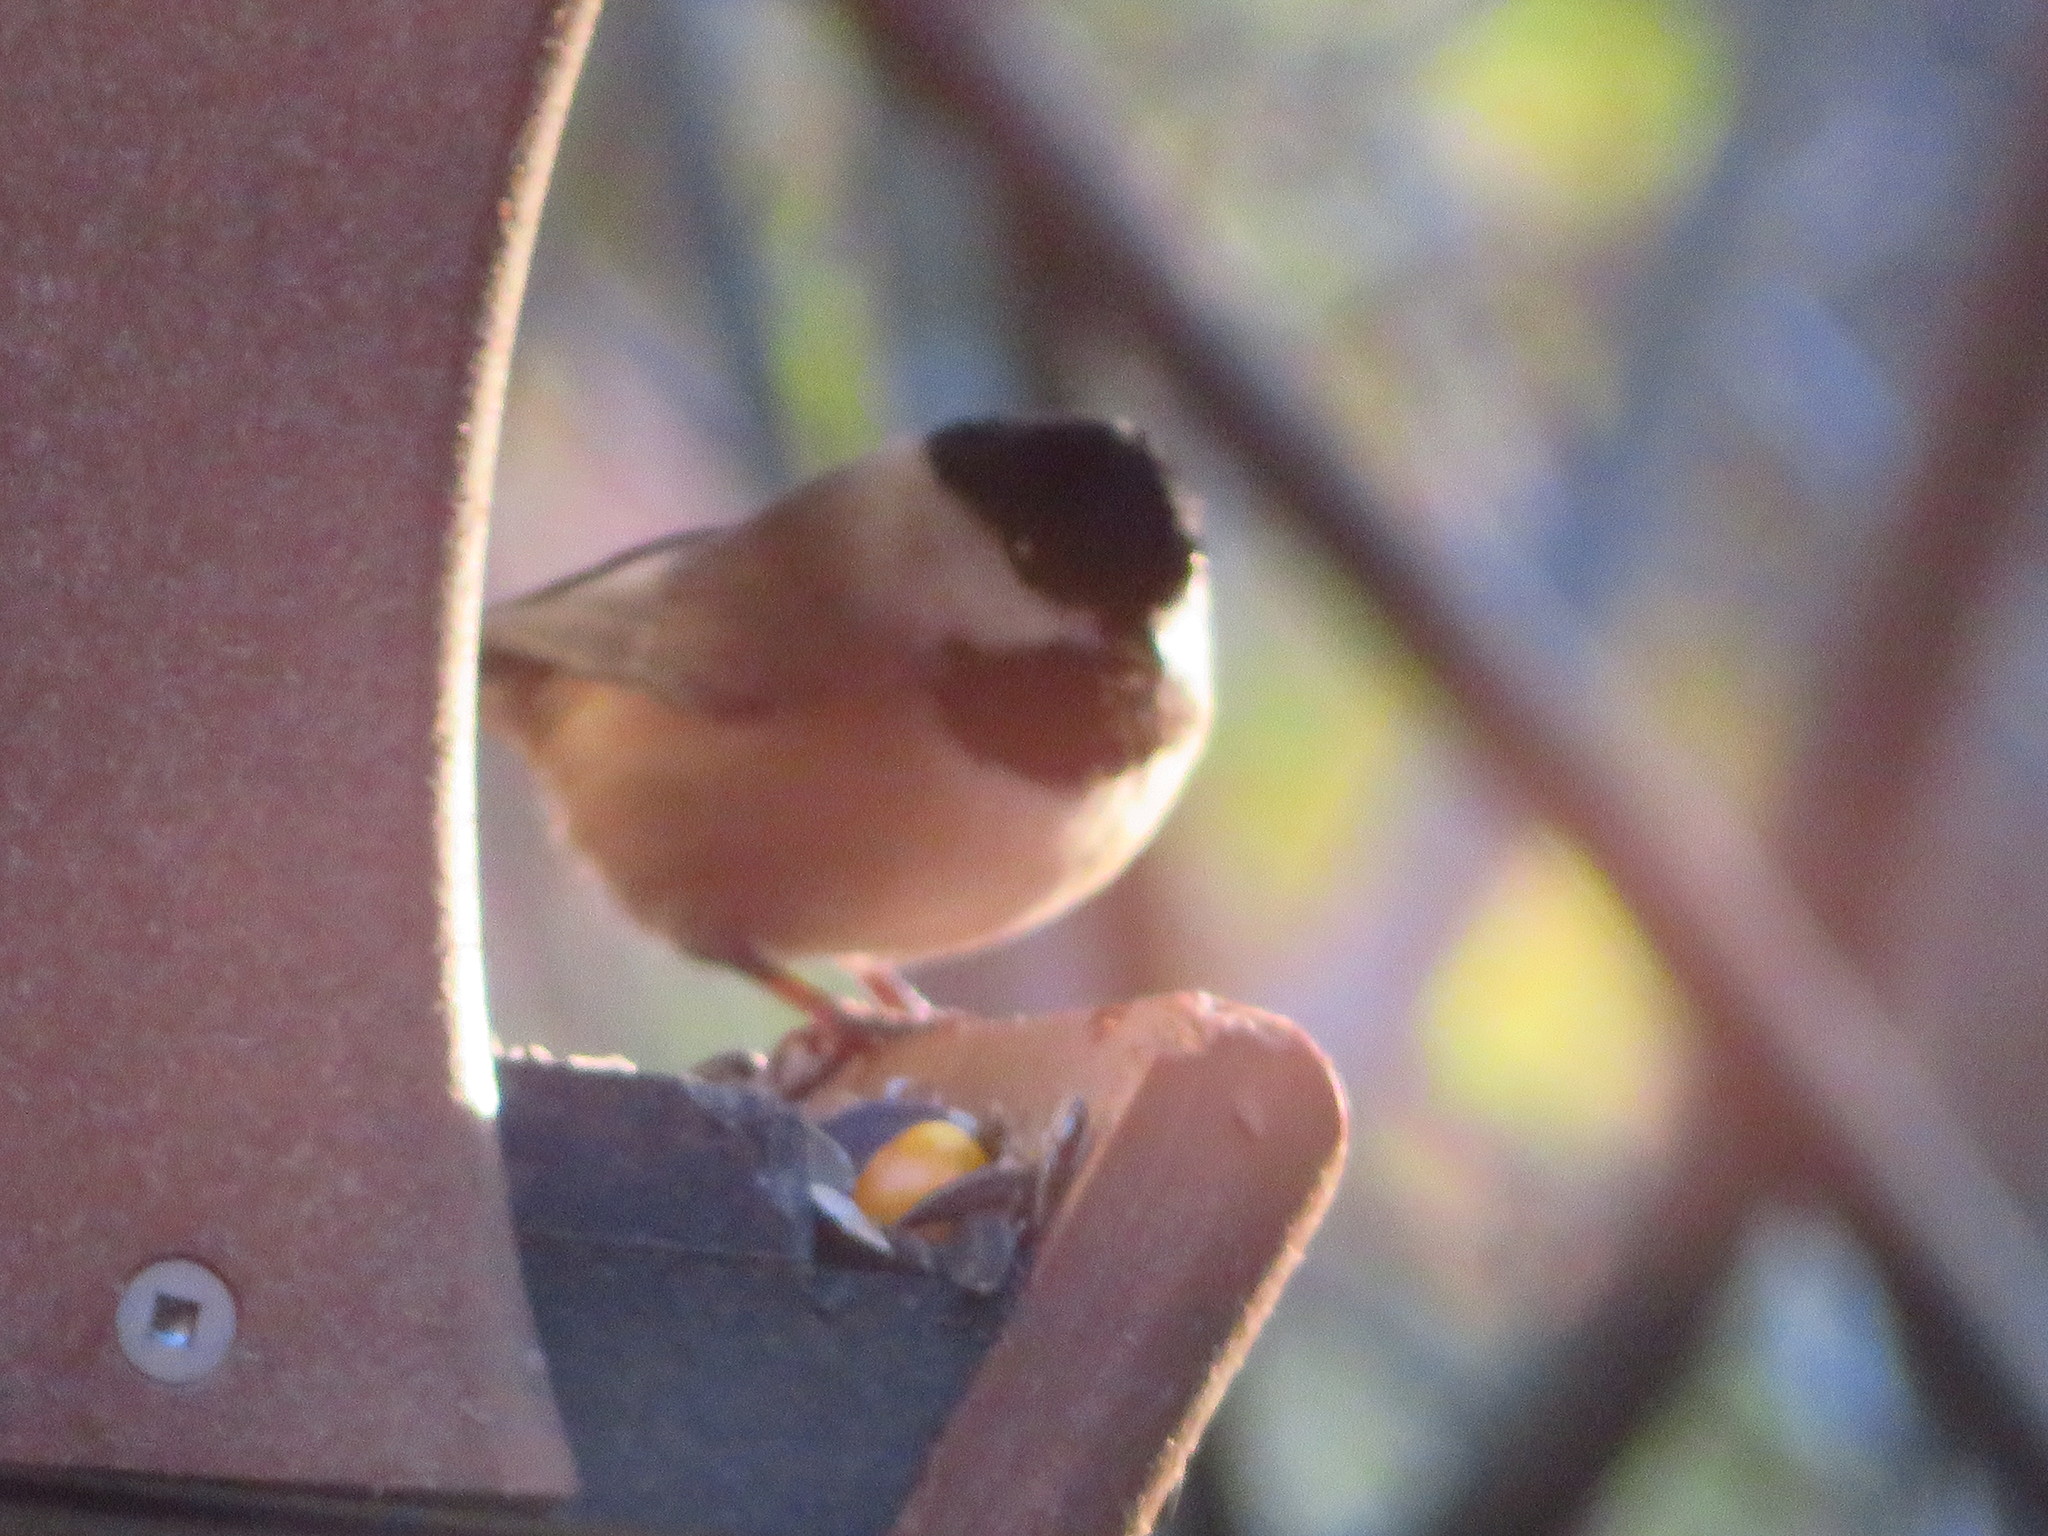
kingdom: Animalia
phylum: Chordata
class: Aves
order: Passeriformes
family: Paridae
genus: Poecile
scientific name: Poecile carolinensis
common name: Carolina chickadee
